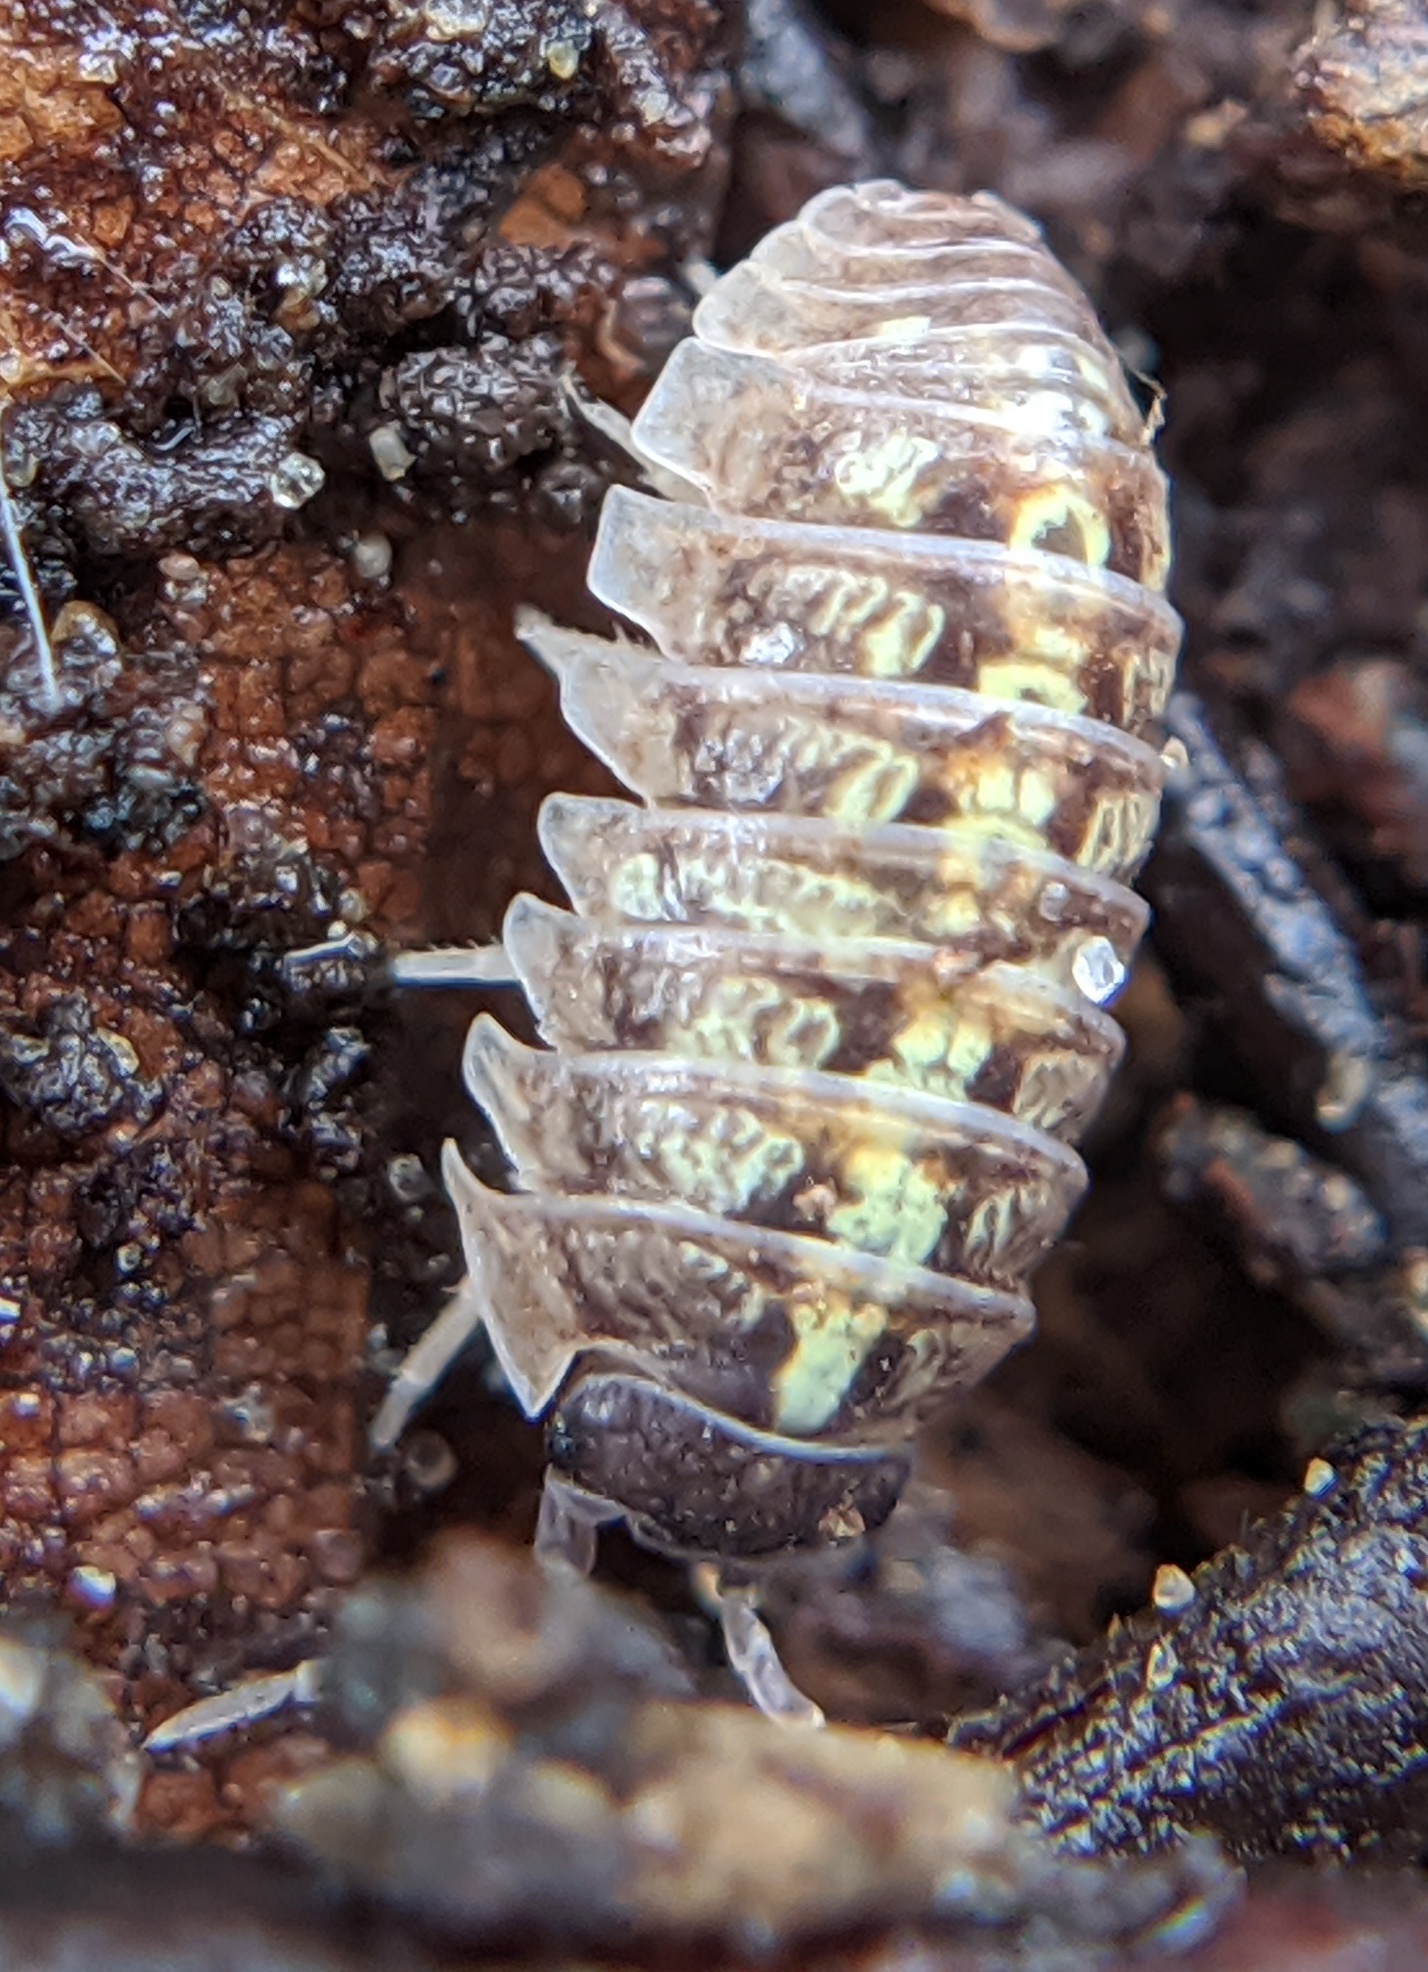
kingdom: Animalia
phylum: Arthropoda
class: Malacostraca
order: Isopoda
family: Armadillidiidae
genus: Armadillidium
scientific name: Armadillidium vulgare
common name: Common pill woodlouse
